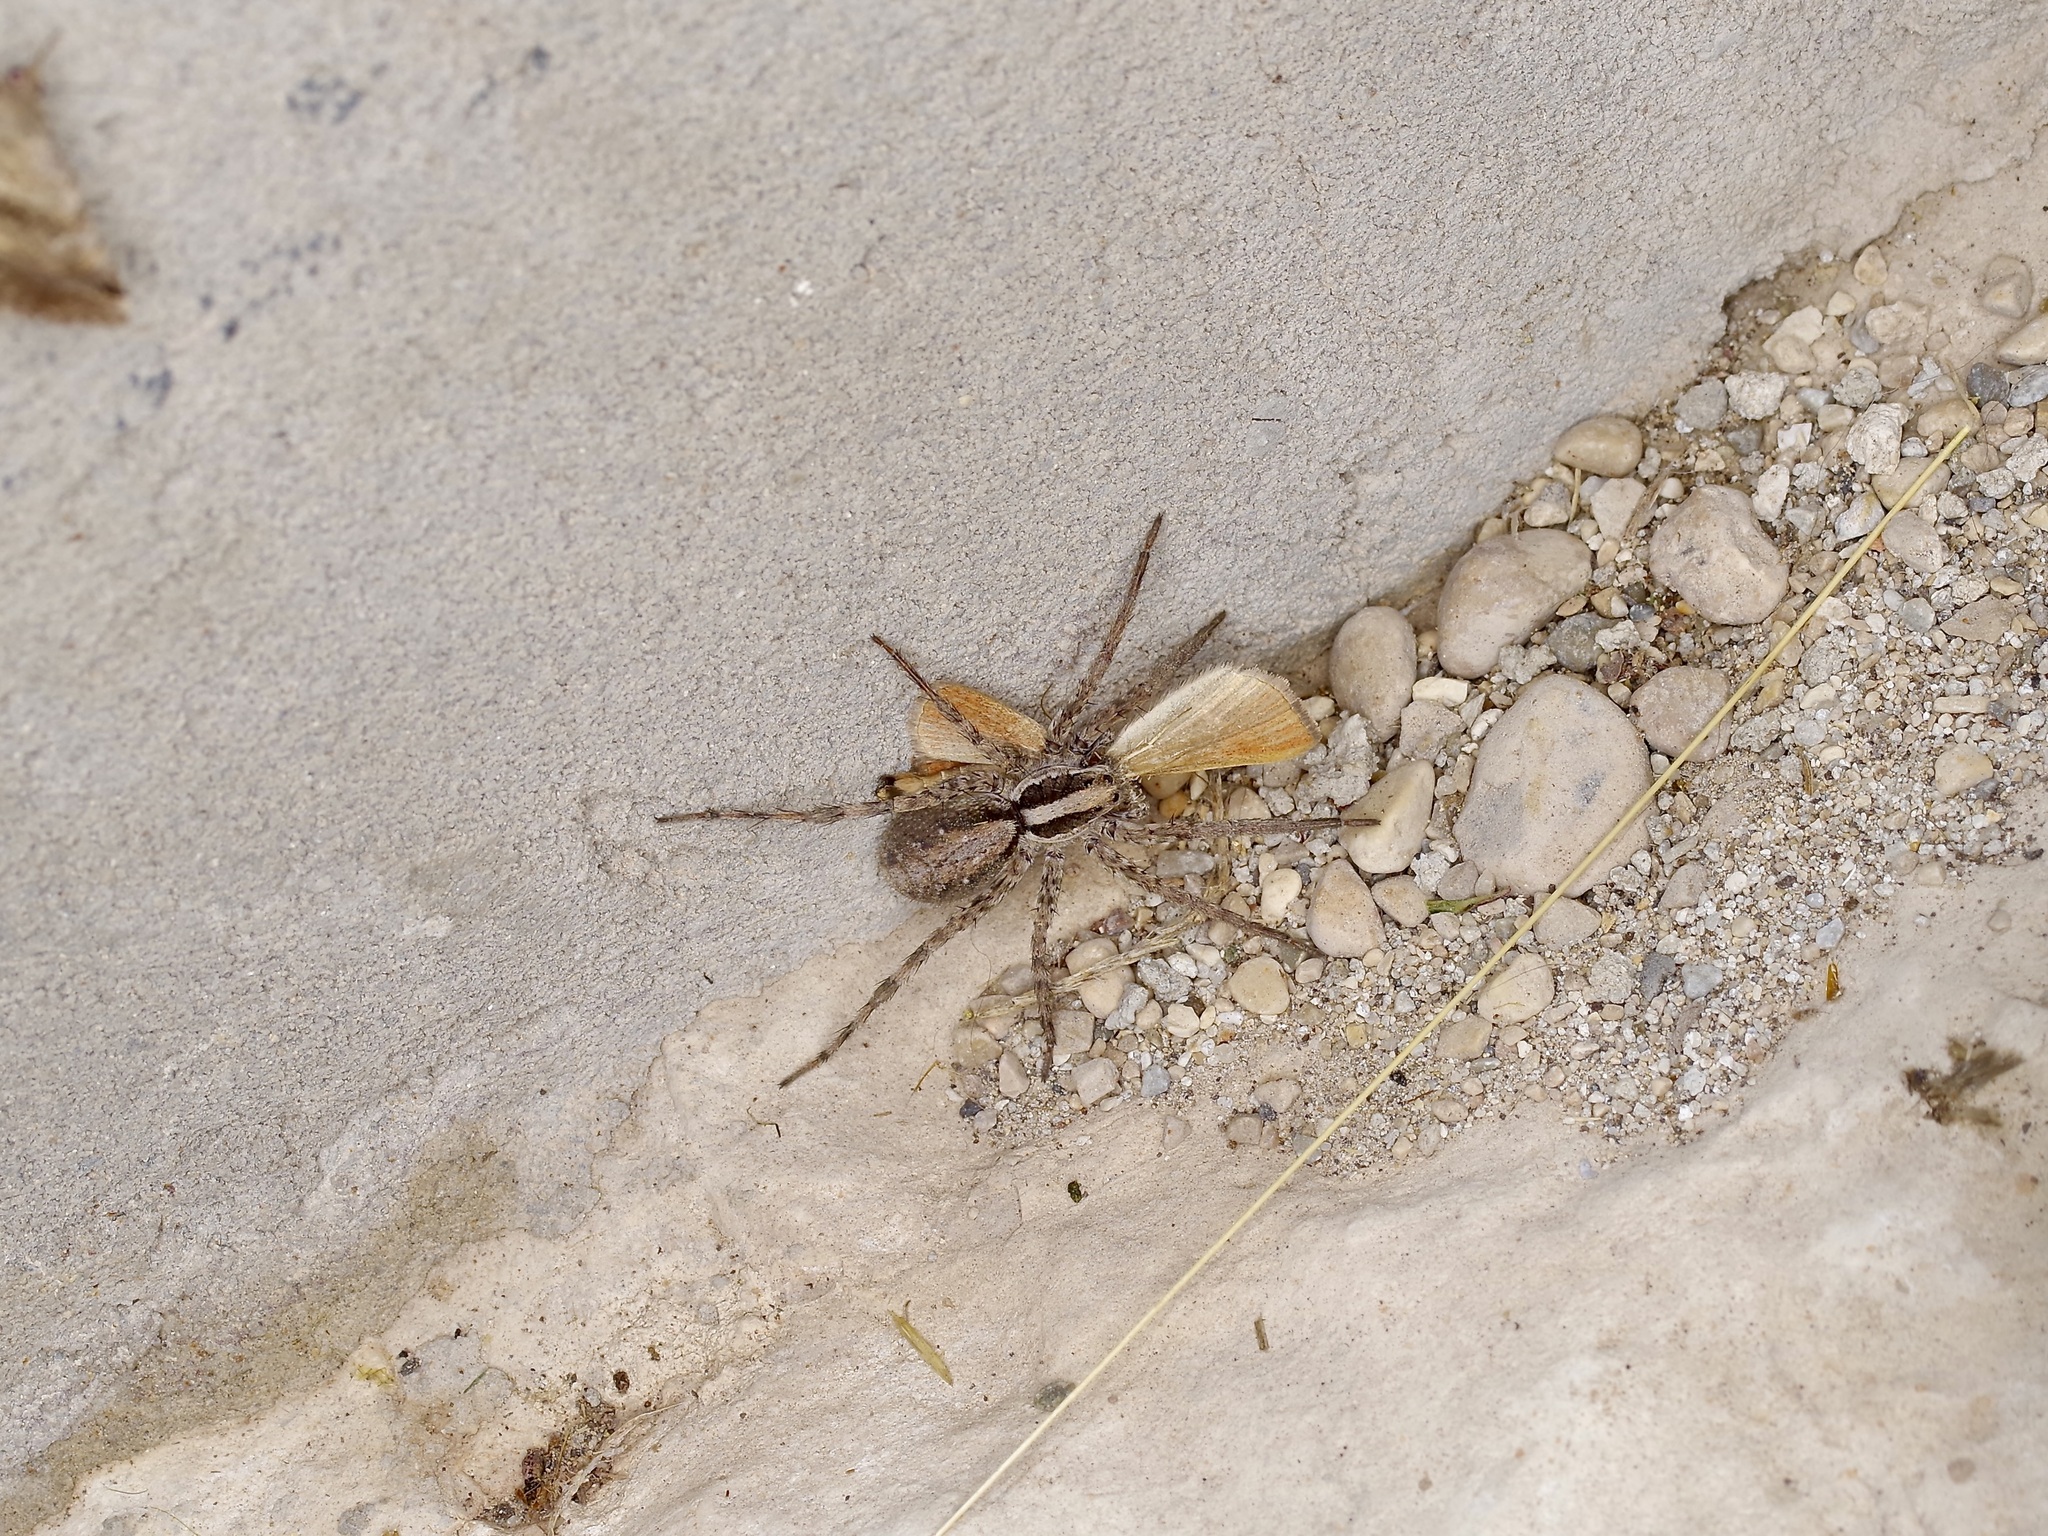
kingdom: Animalia
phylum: Arthropoda
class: Arachnida
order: Araneae
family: Lycosidae
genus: Schizocosa
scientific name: Schizocosa aulonia
